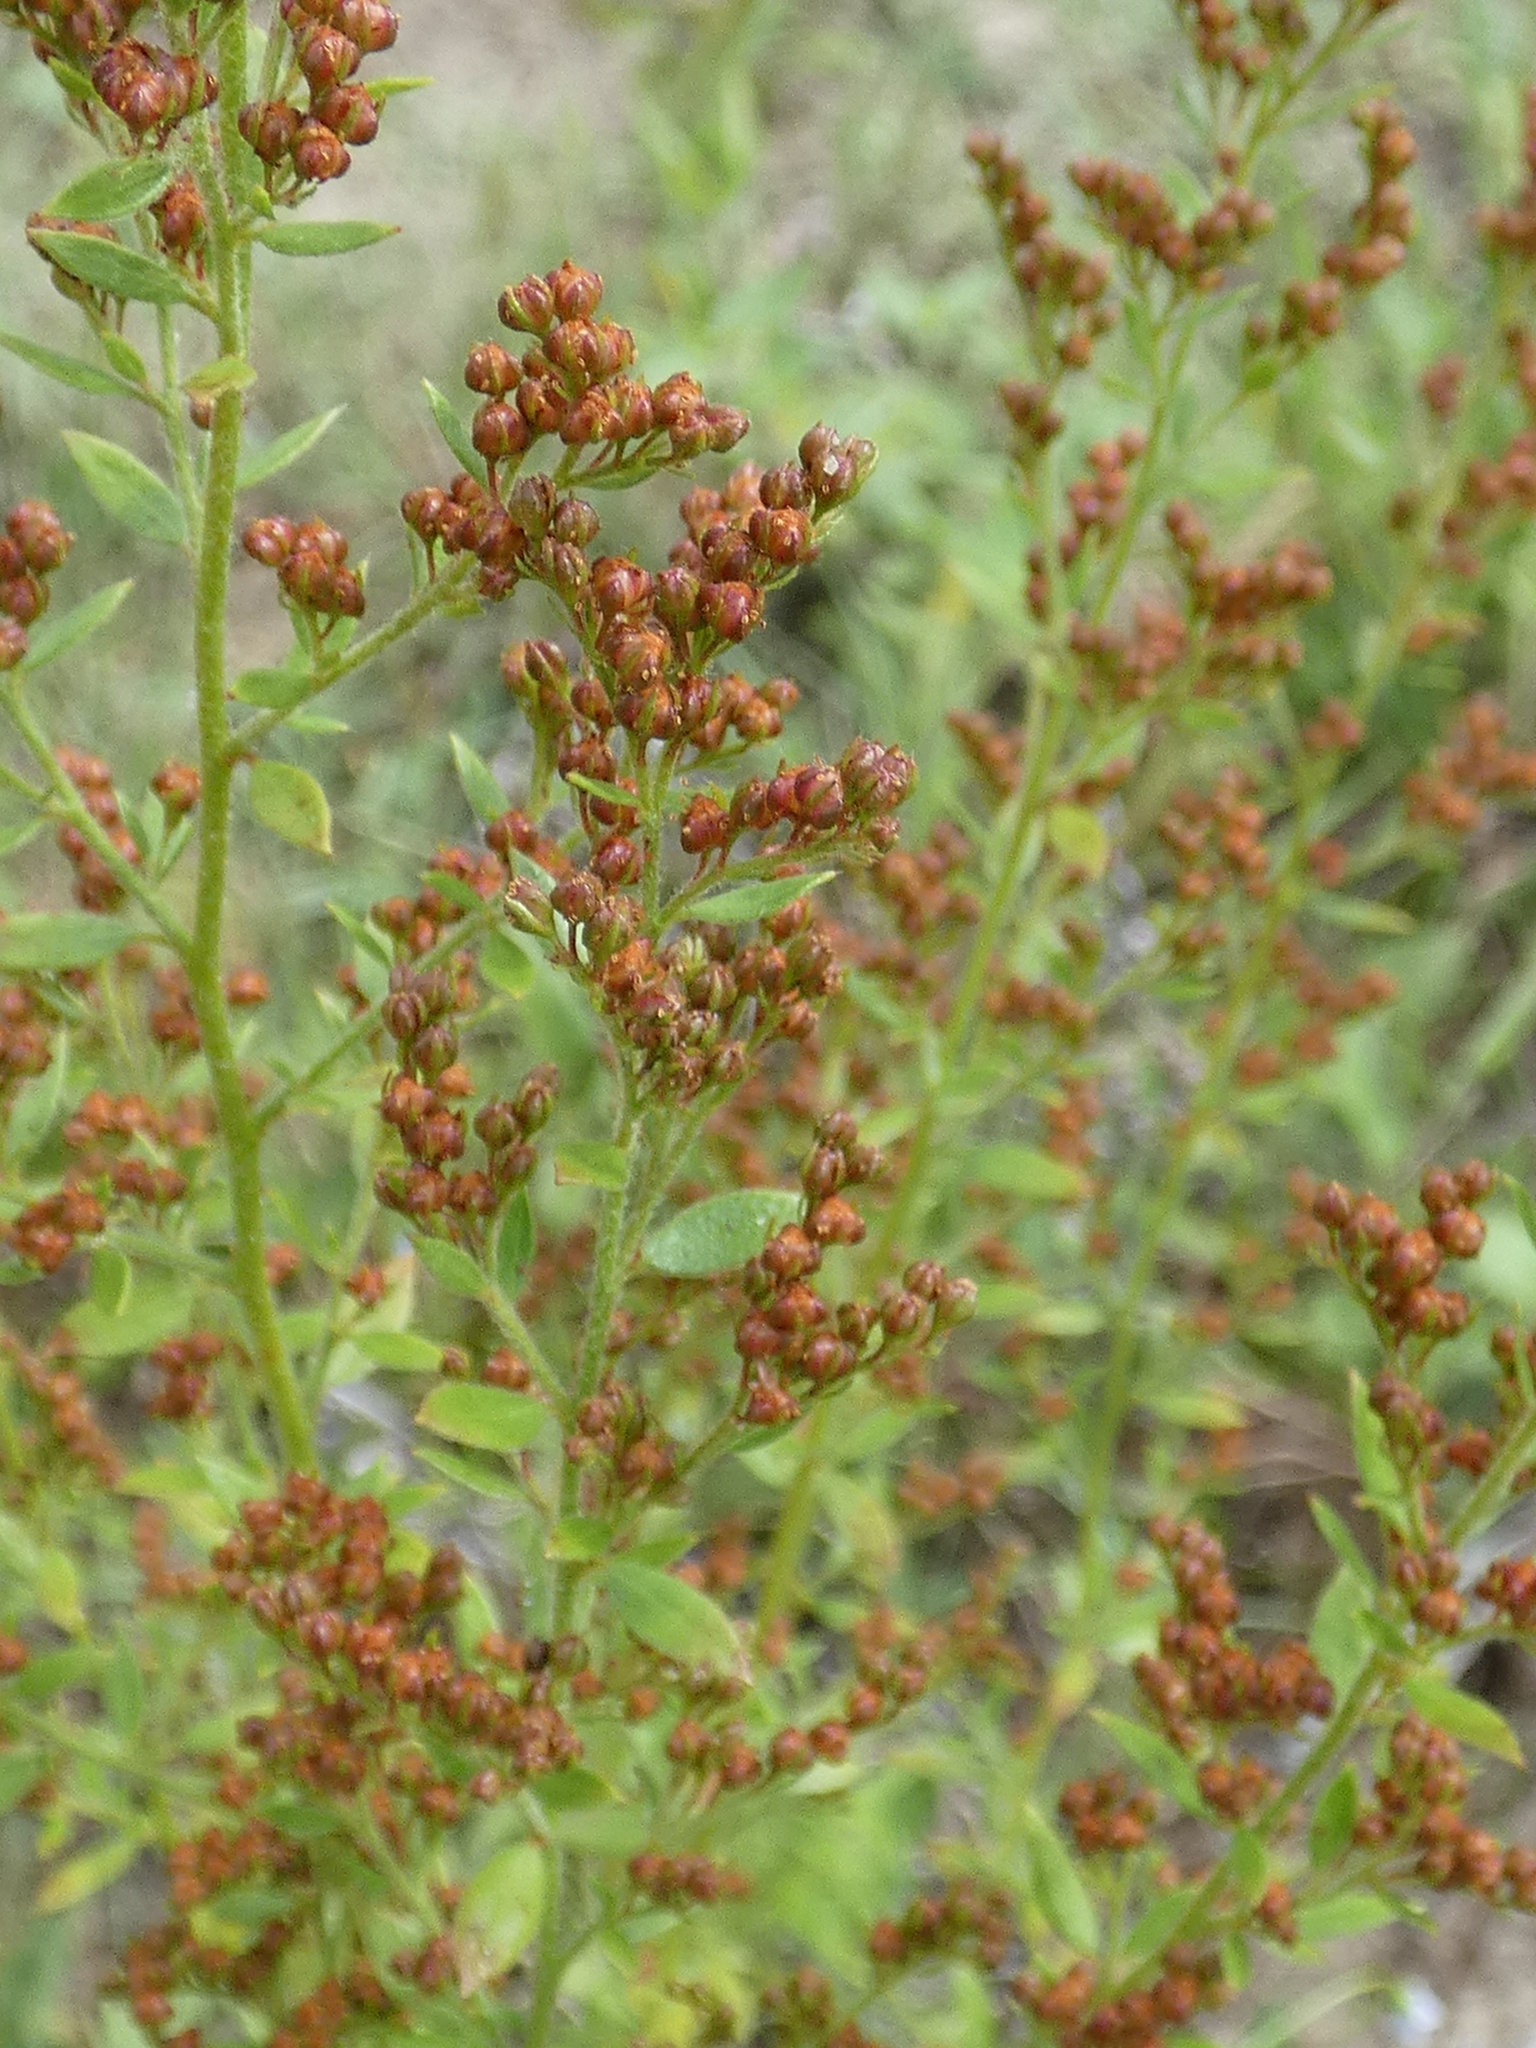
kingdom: Plantae
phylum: Tracheophyta
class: Magnoliopsida
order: Malvales
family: Cistaceae
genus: Lechea
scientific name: Lechea mucronata
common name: Hairy pinweed
